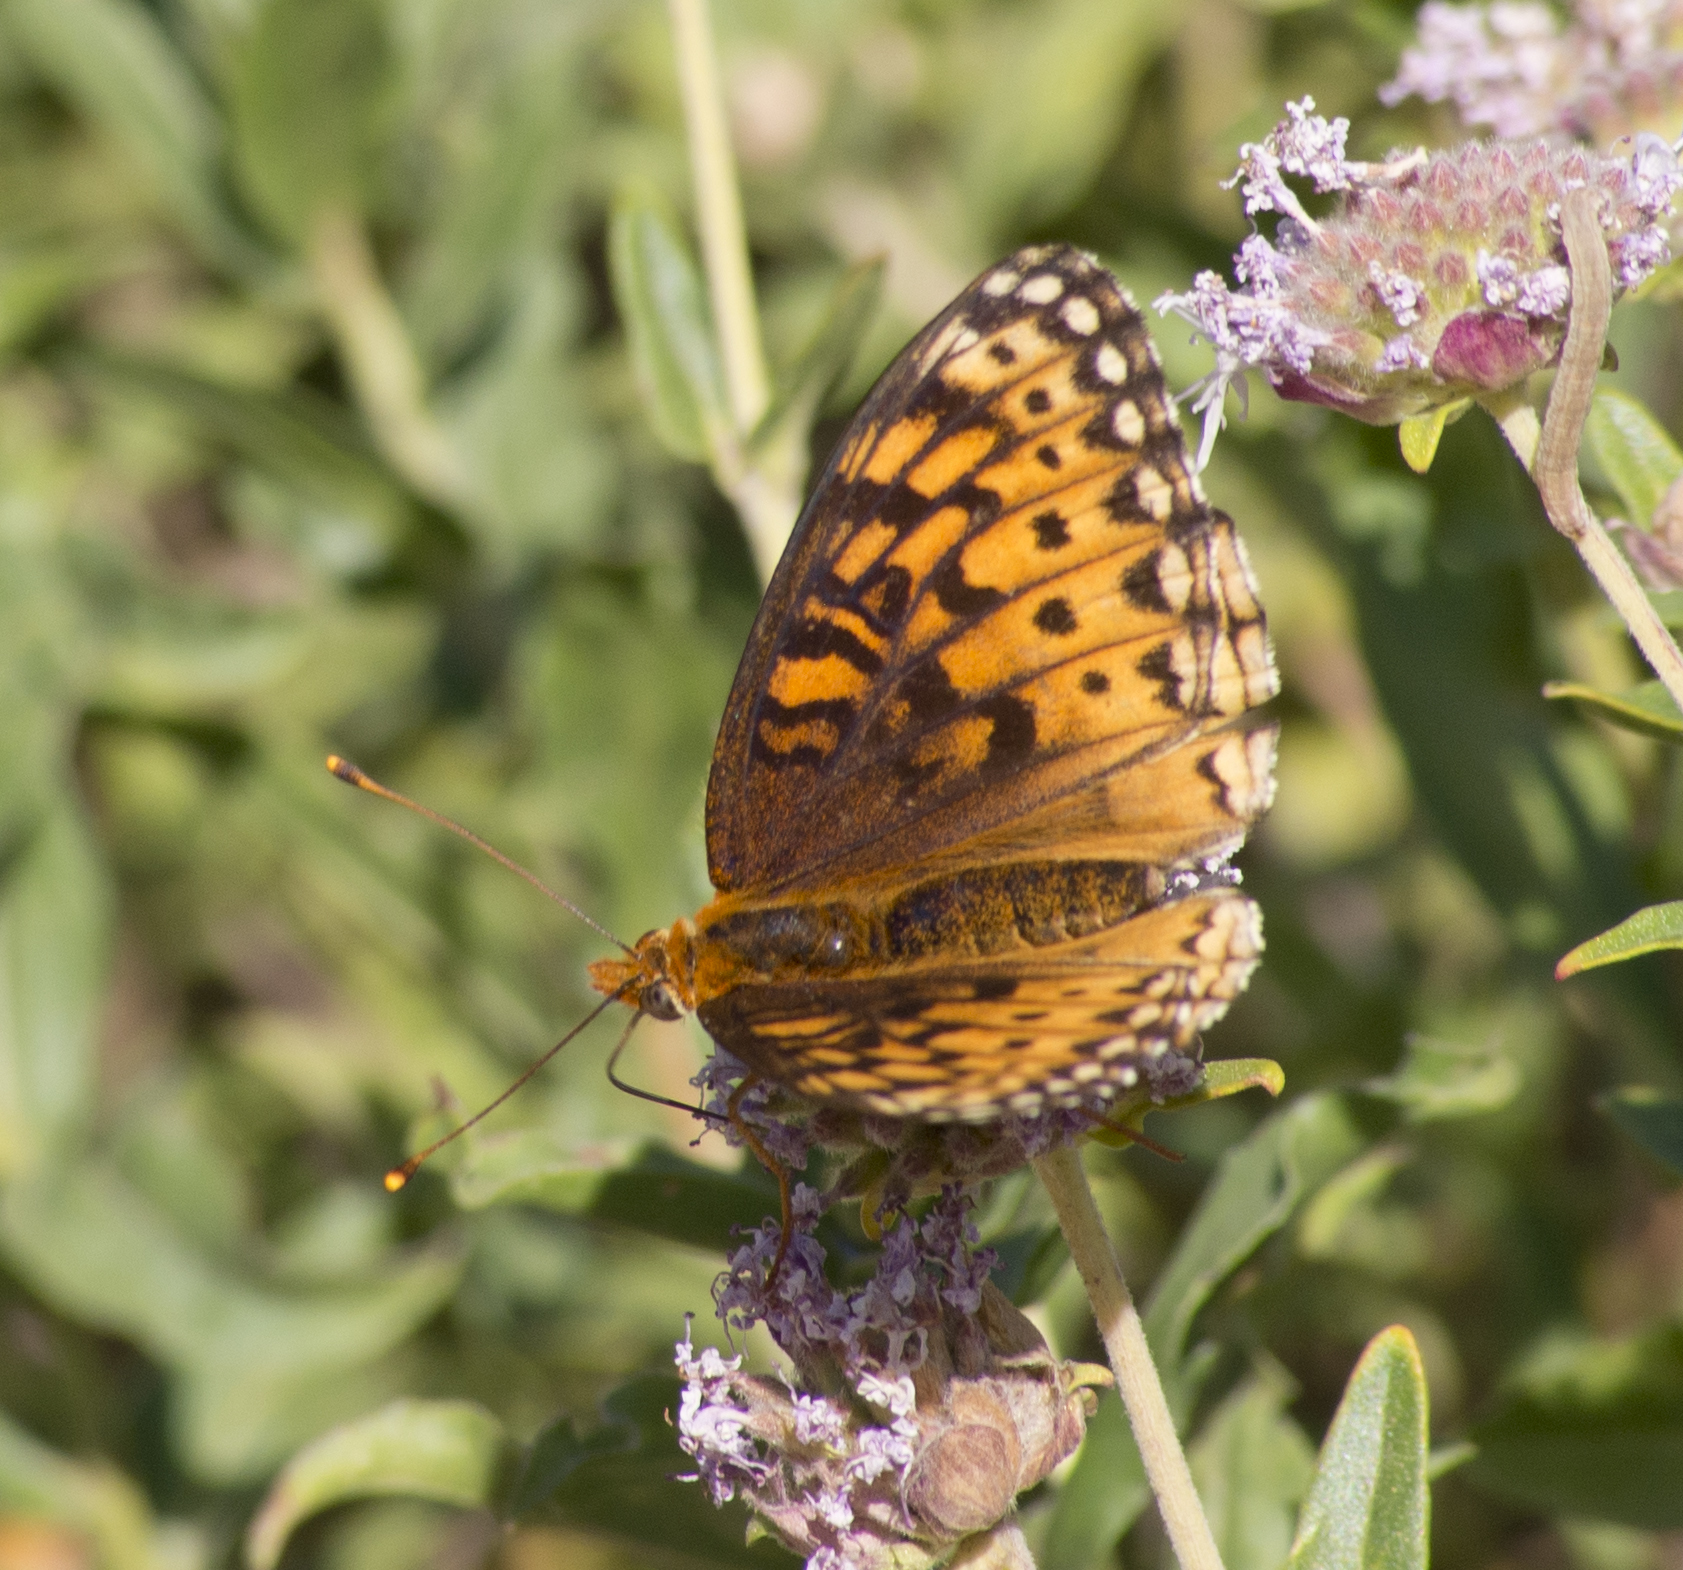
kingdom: Animalia
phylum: Arthropoda
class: Insecta
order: Lepidoptera
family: Nymphalidae
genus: Speyeria
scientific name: Speyeria atlantis
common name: Atlantis fritillary
